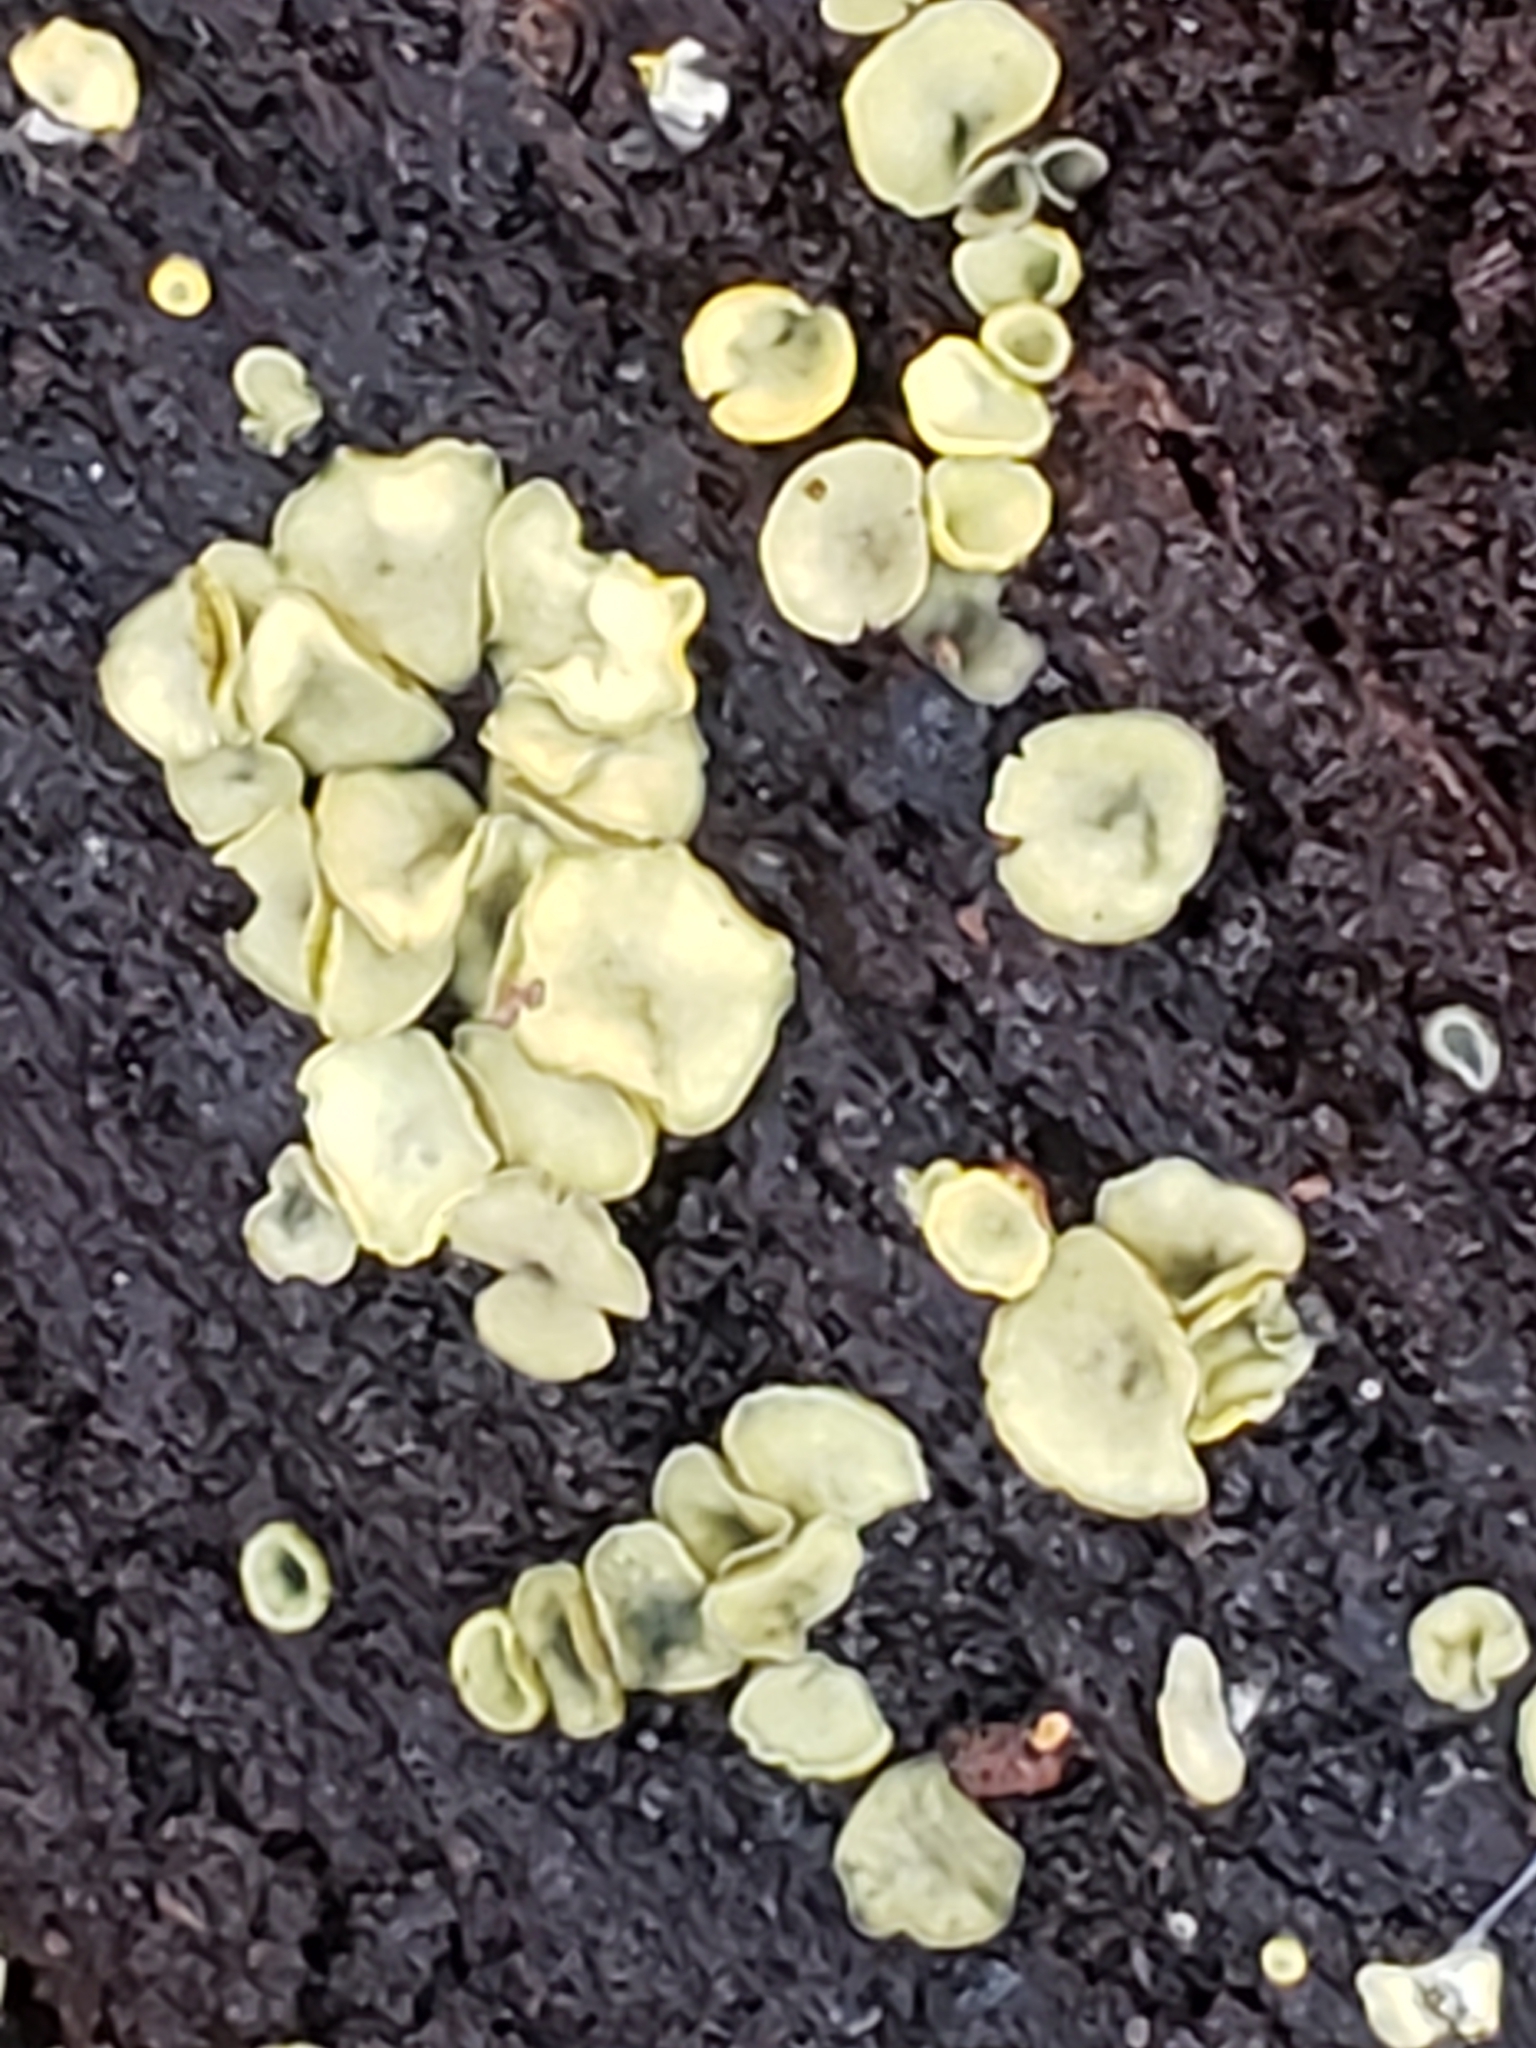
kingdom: Fungi
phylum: Ascomycota
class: Leotiomycetes
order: Helotiales
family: Chlorospleniaceae
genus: Chlorosplenium
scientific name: Chlorosplenium chlora
